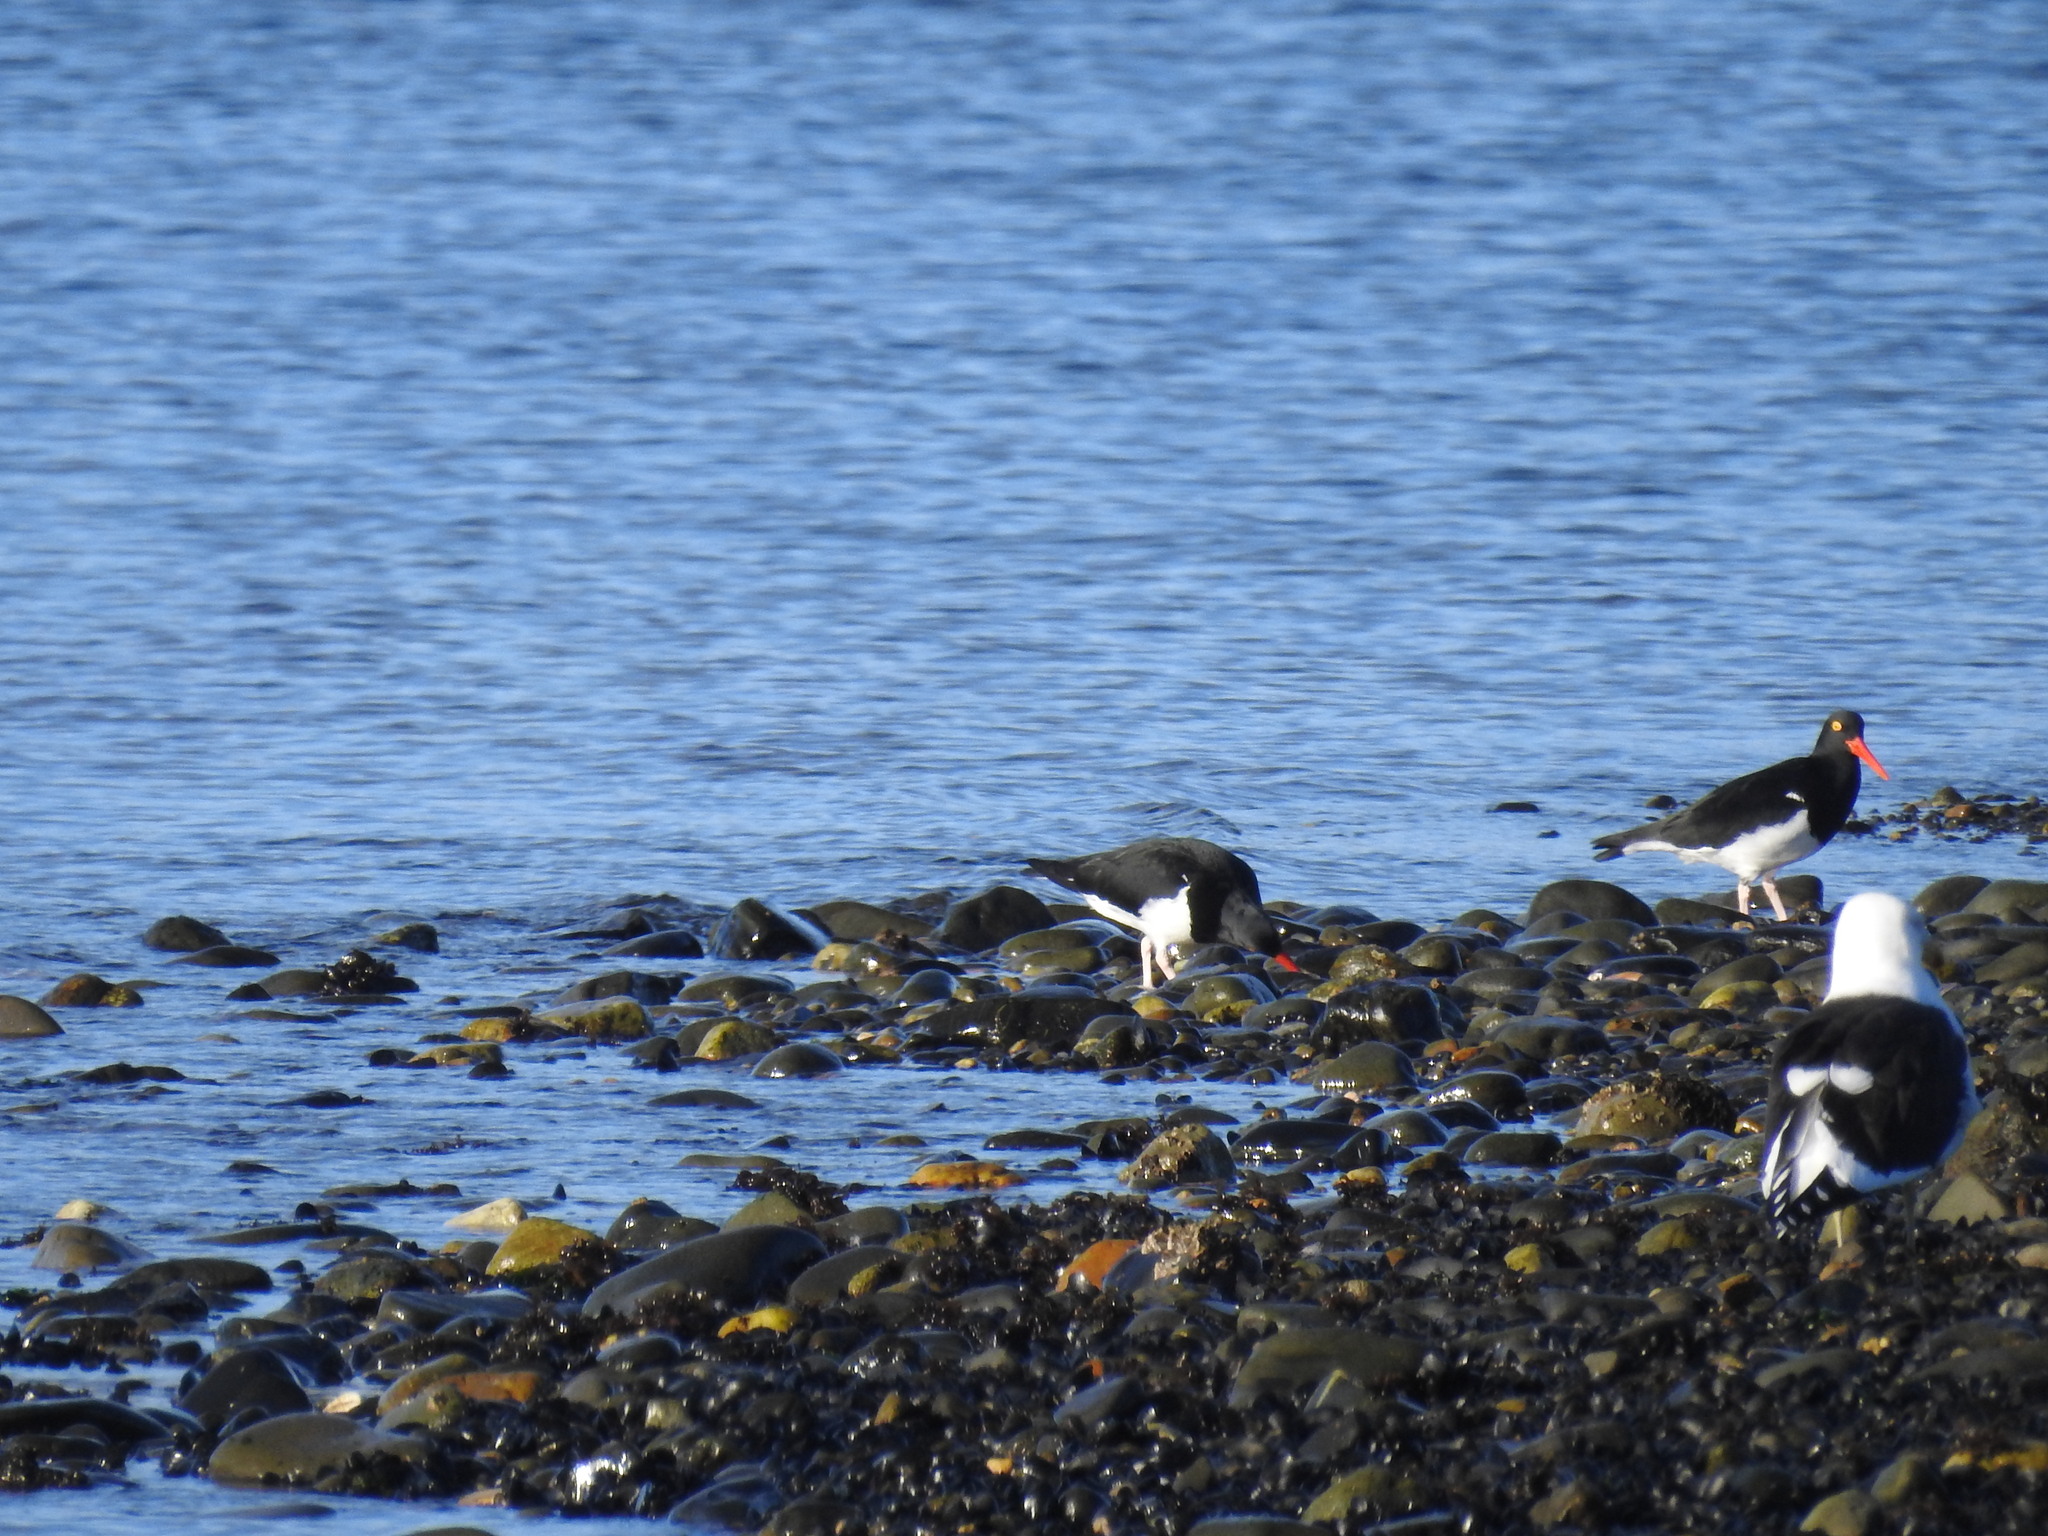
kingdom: Animalia
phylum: Chordata
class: Aves
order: Charadriiformes
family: Laridae
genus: Larus
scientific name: Larus dominicanus
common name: Kelp gull
